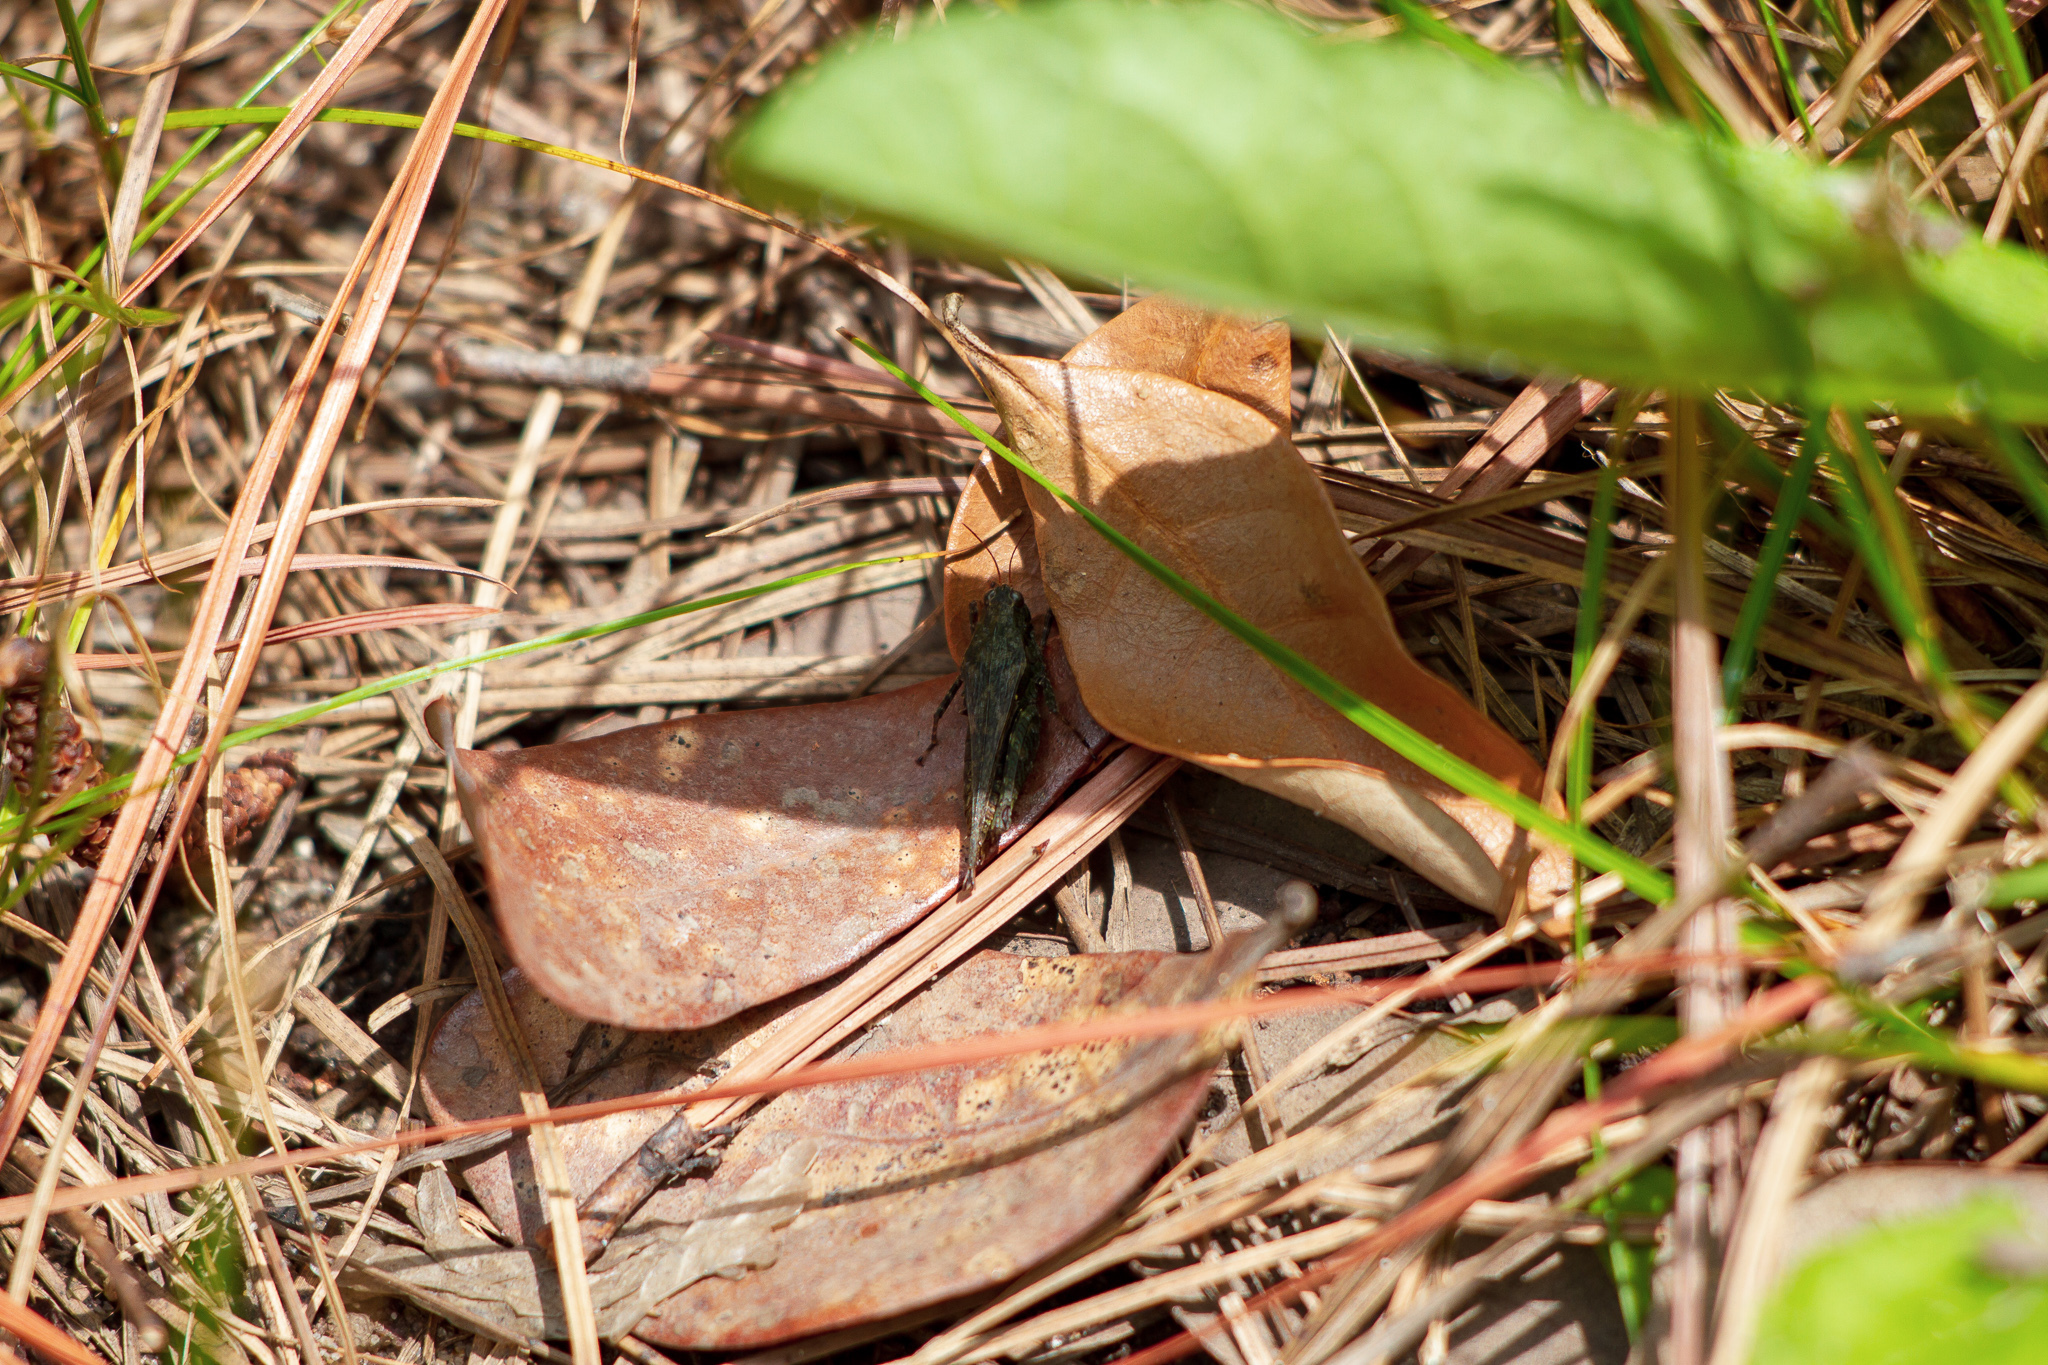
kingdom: Animalia
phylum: Arthropoda
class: Insecta
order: Orthoptera
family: Tetrigidae
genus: Tettigidea
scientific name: Tettigidea laterale
